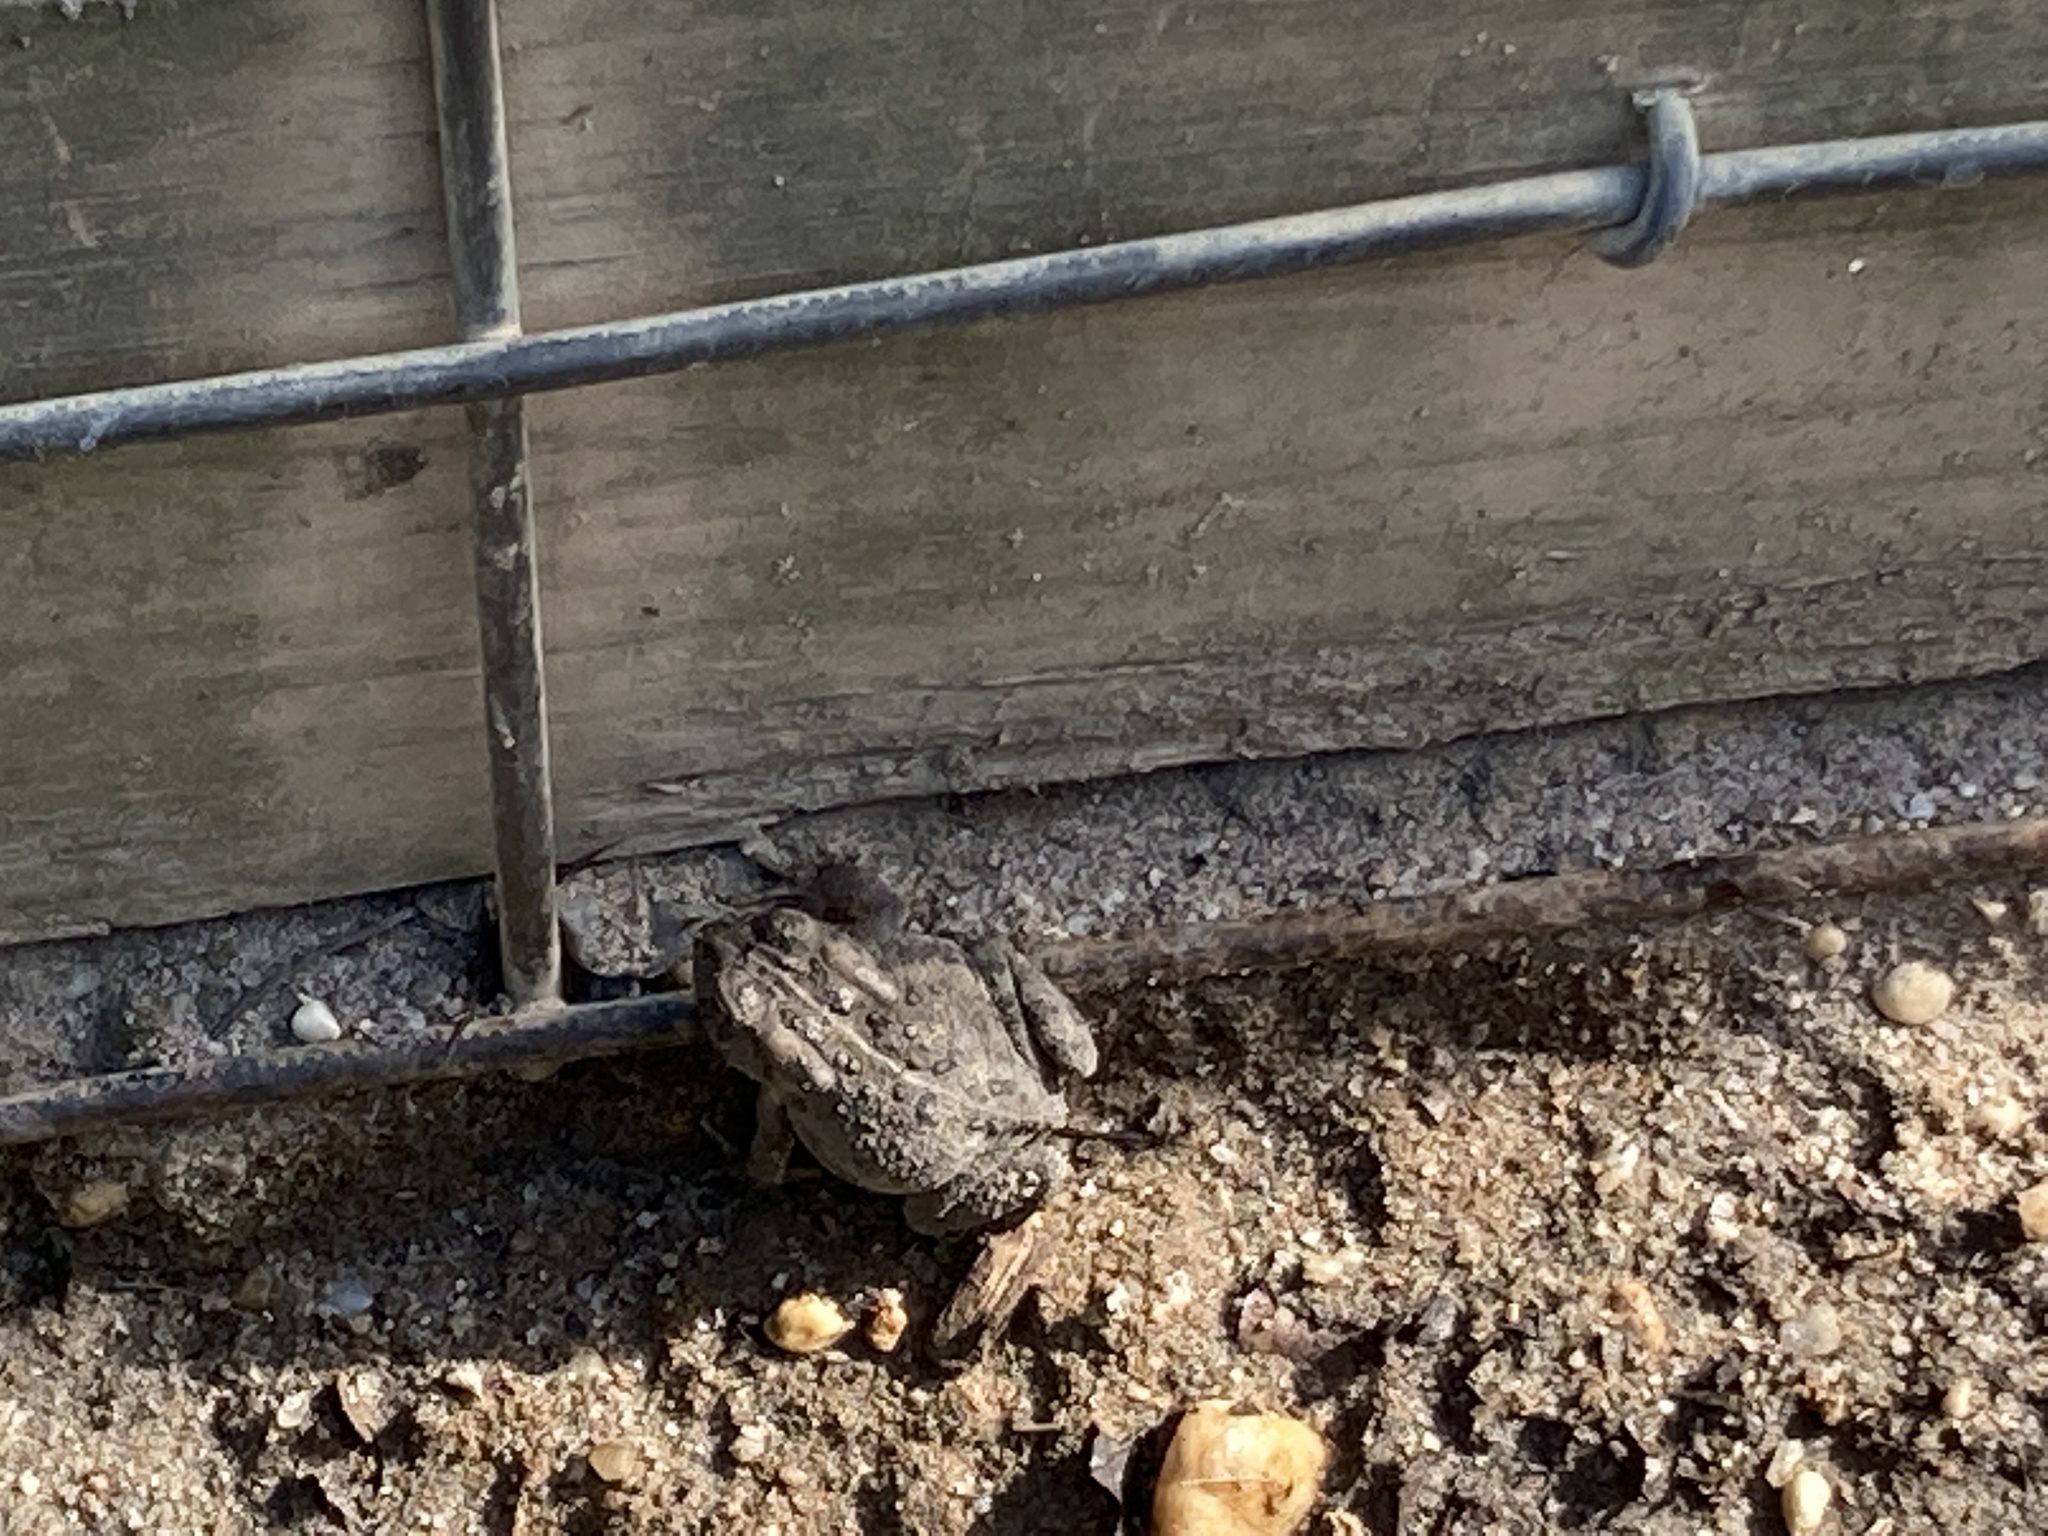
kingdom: Animalia
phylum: Chordata
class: Amphibia
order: Anura
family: Bufonidae
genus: Anaxyrus
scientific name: Anaxyrus fowleri
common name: Fowler's toad
